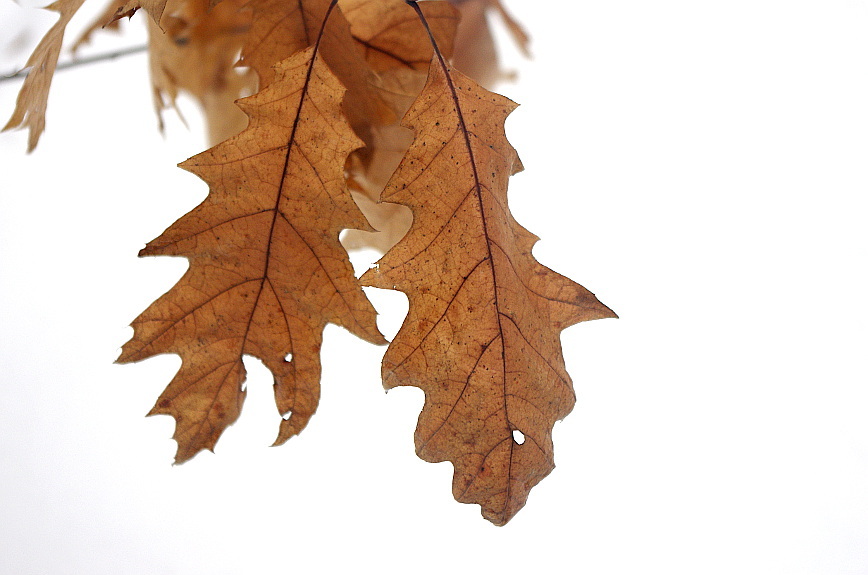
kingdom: Plantae
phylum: Tracheophyta
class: Magnoliopsida
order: Fagales
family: Fagaceae
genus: Quercus
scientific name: Quercus rubra
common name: Red oak
